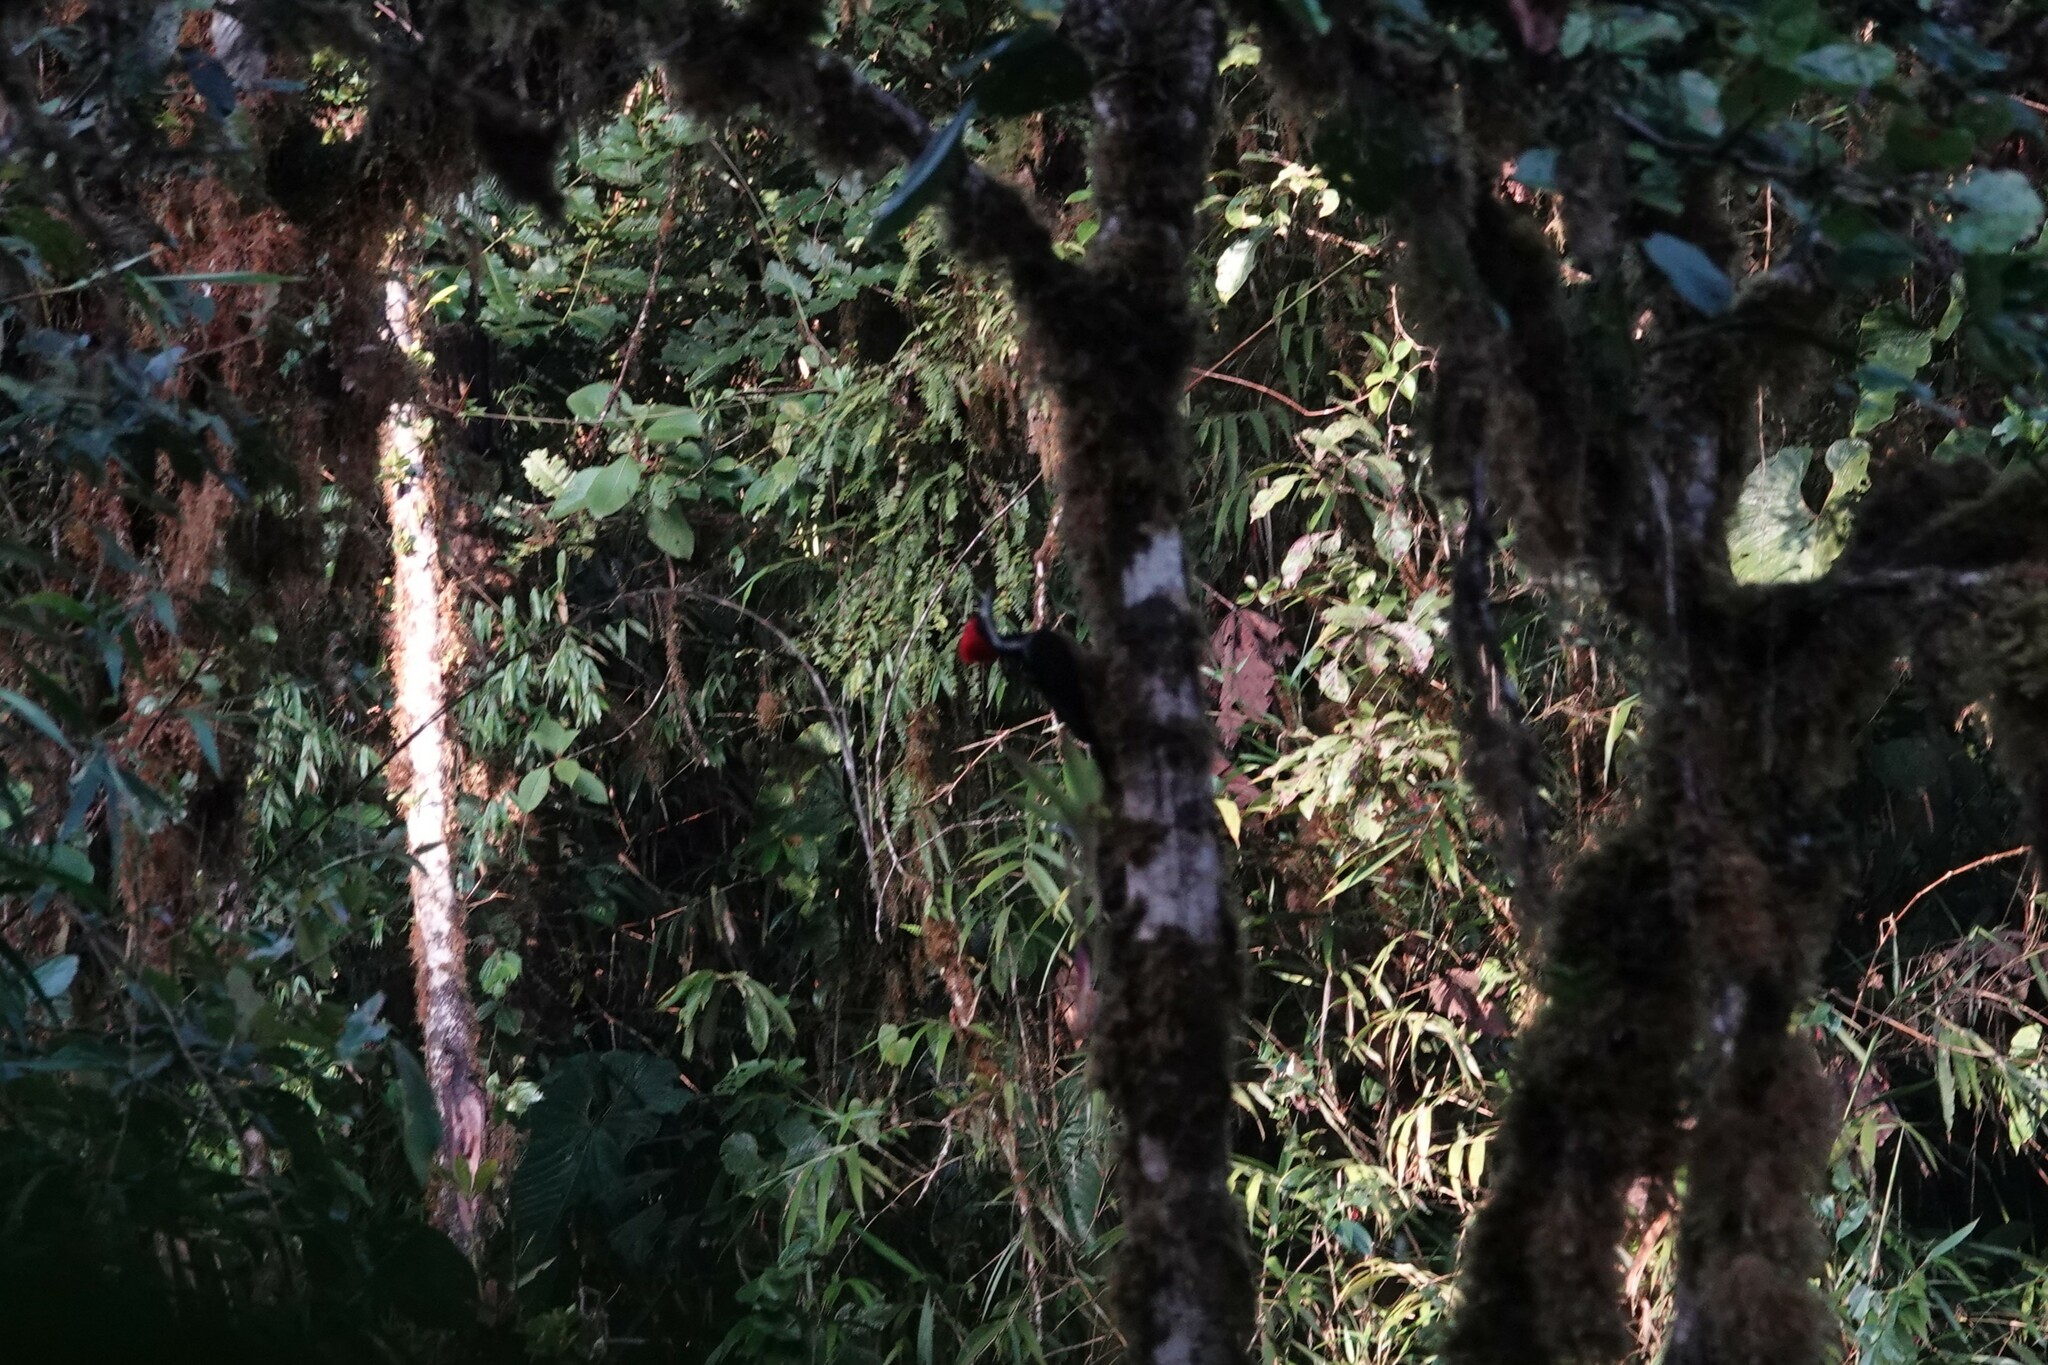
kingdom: Animalia
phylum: Chordata
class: Aves
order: Piciformes
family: Picidae
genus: Campephilus
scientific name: Campephilus pollens
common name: Powerful woodpecker
